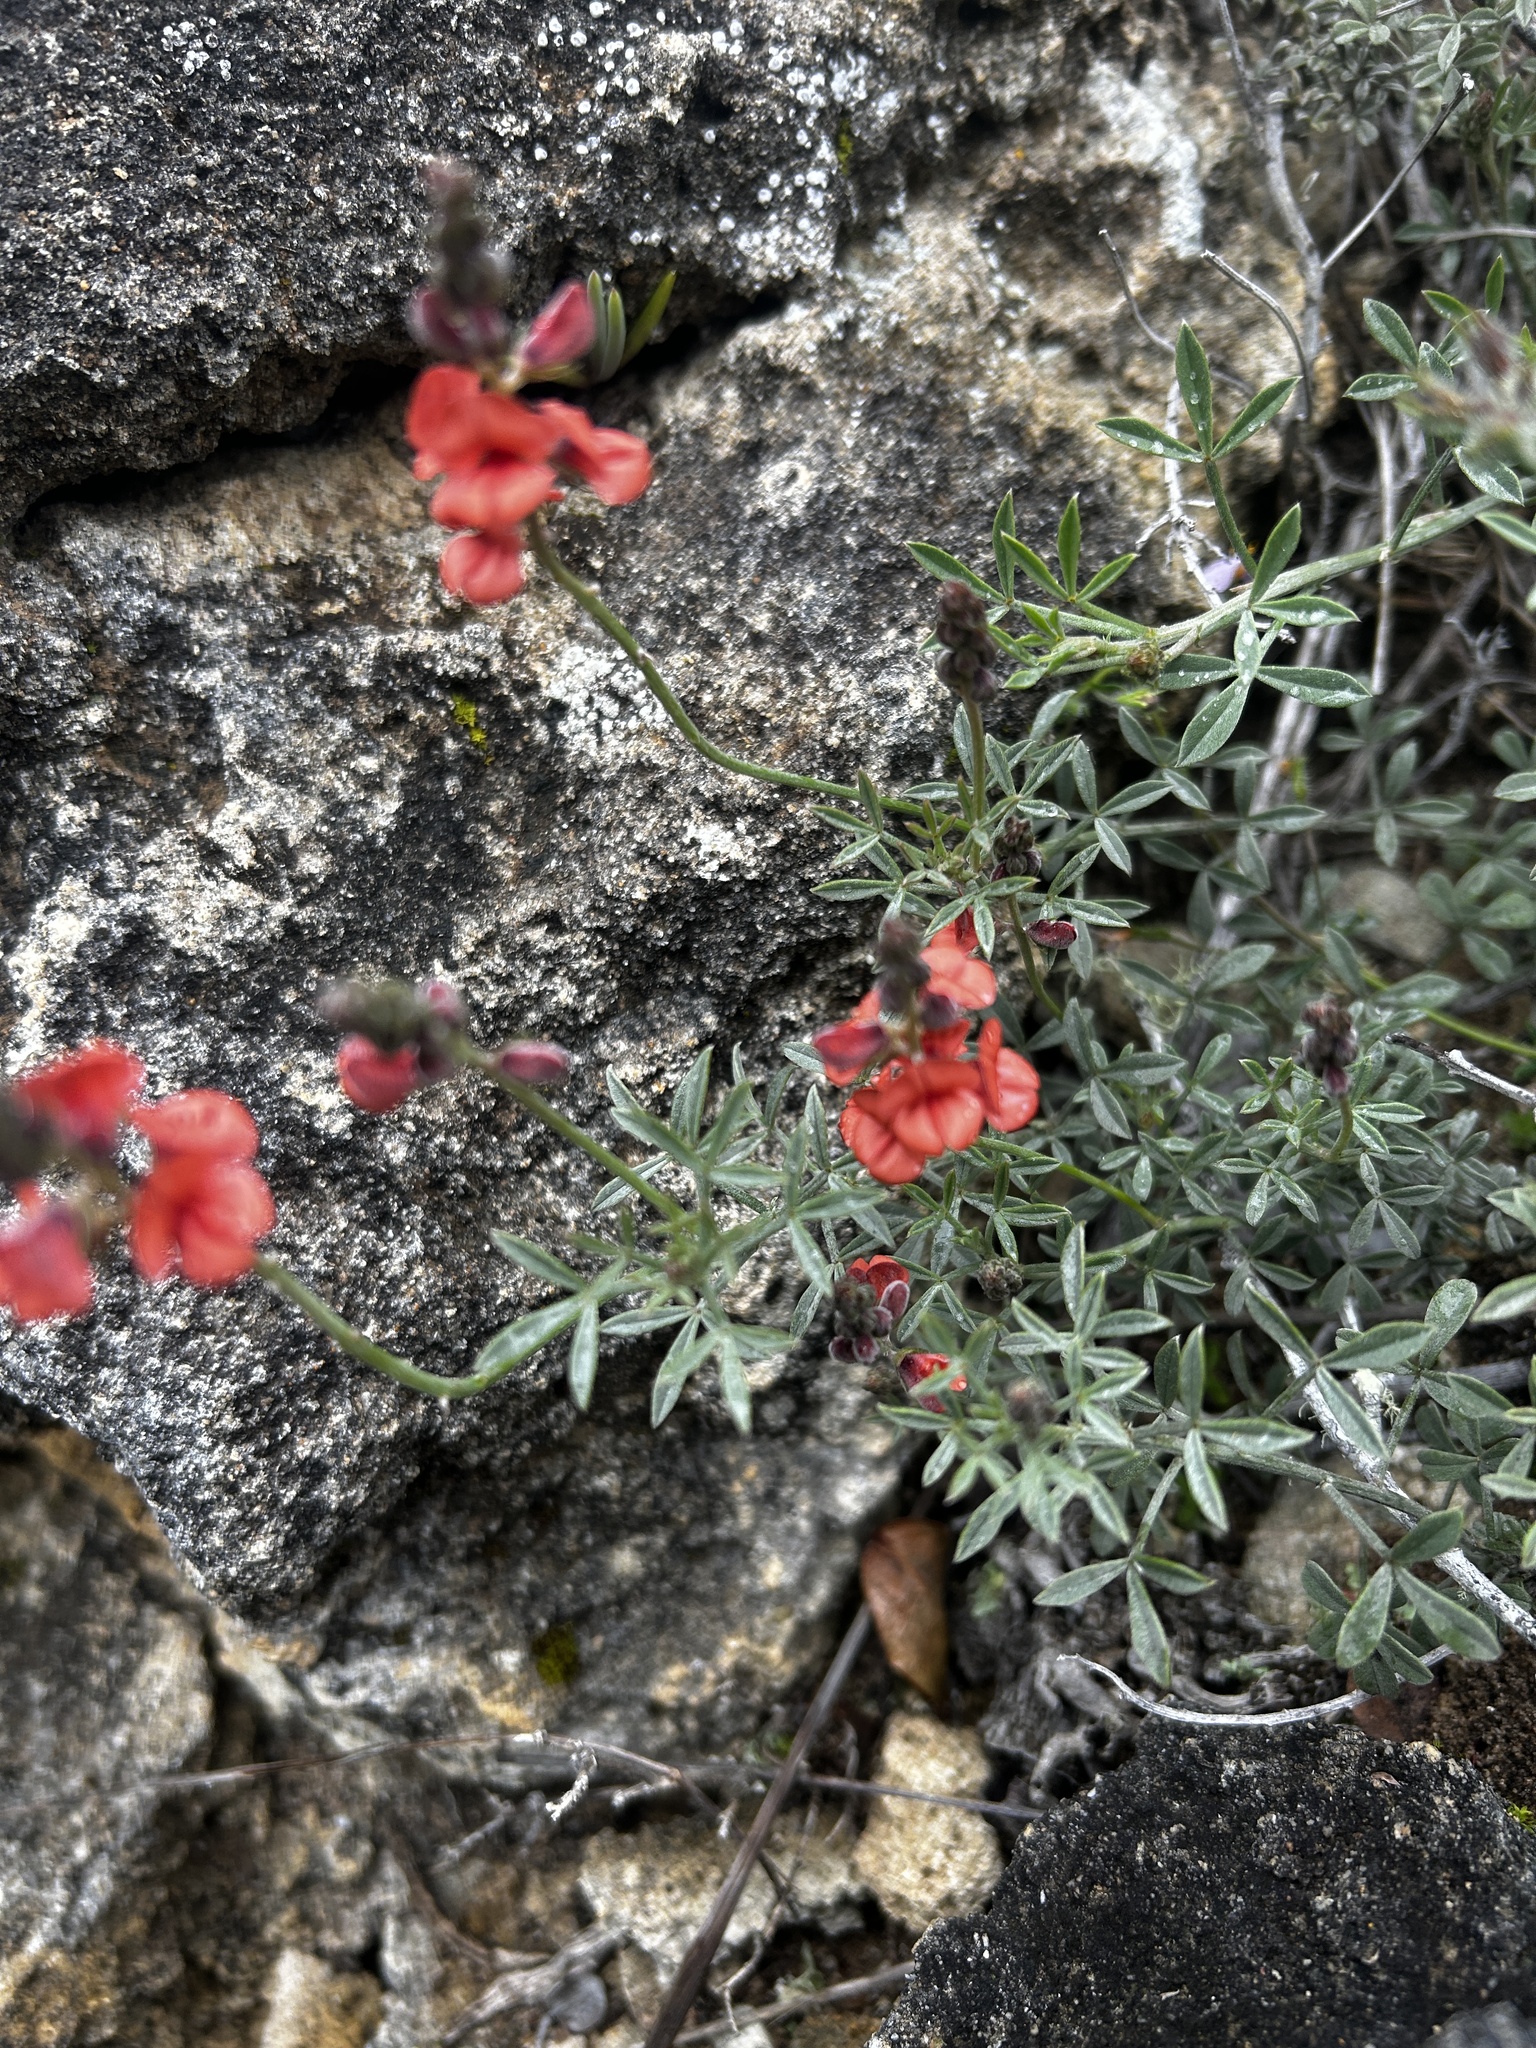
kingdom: Plantae
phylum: Tracheophyta
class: Magnoliopsida
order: Fabales
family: Fabaceae
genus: Indigofera
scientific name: Indigofera heterophylla
